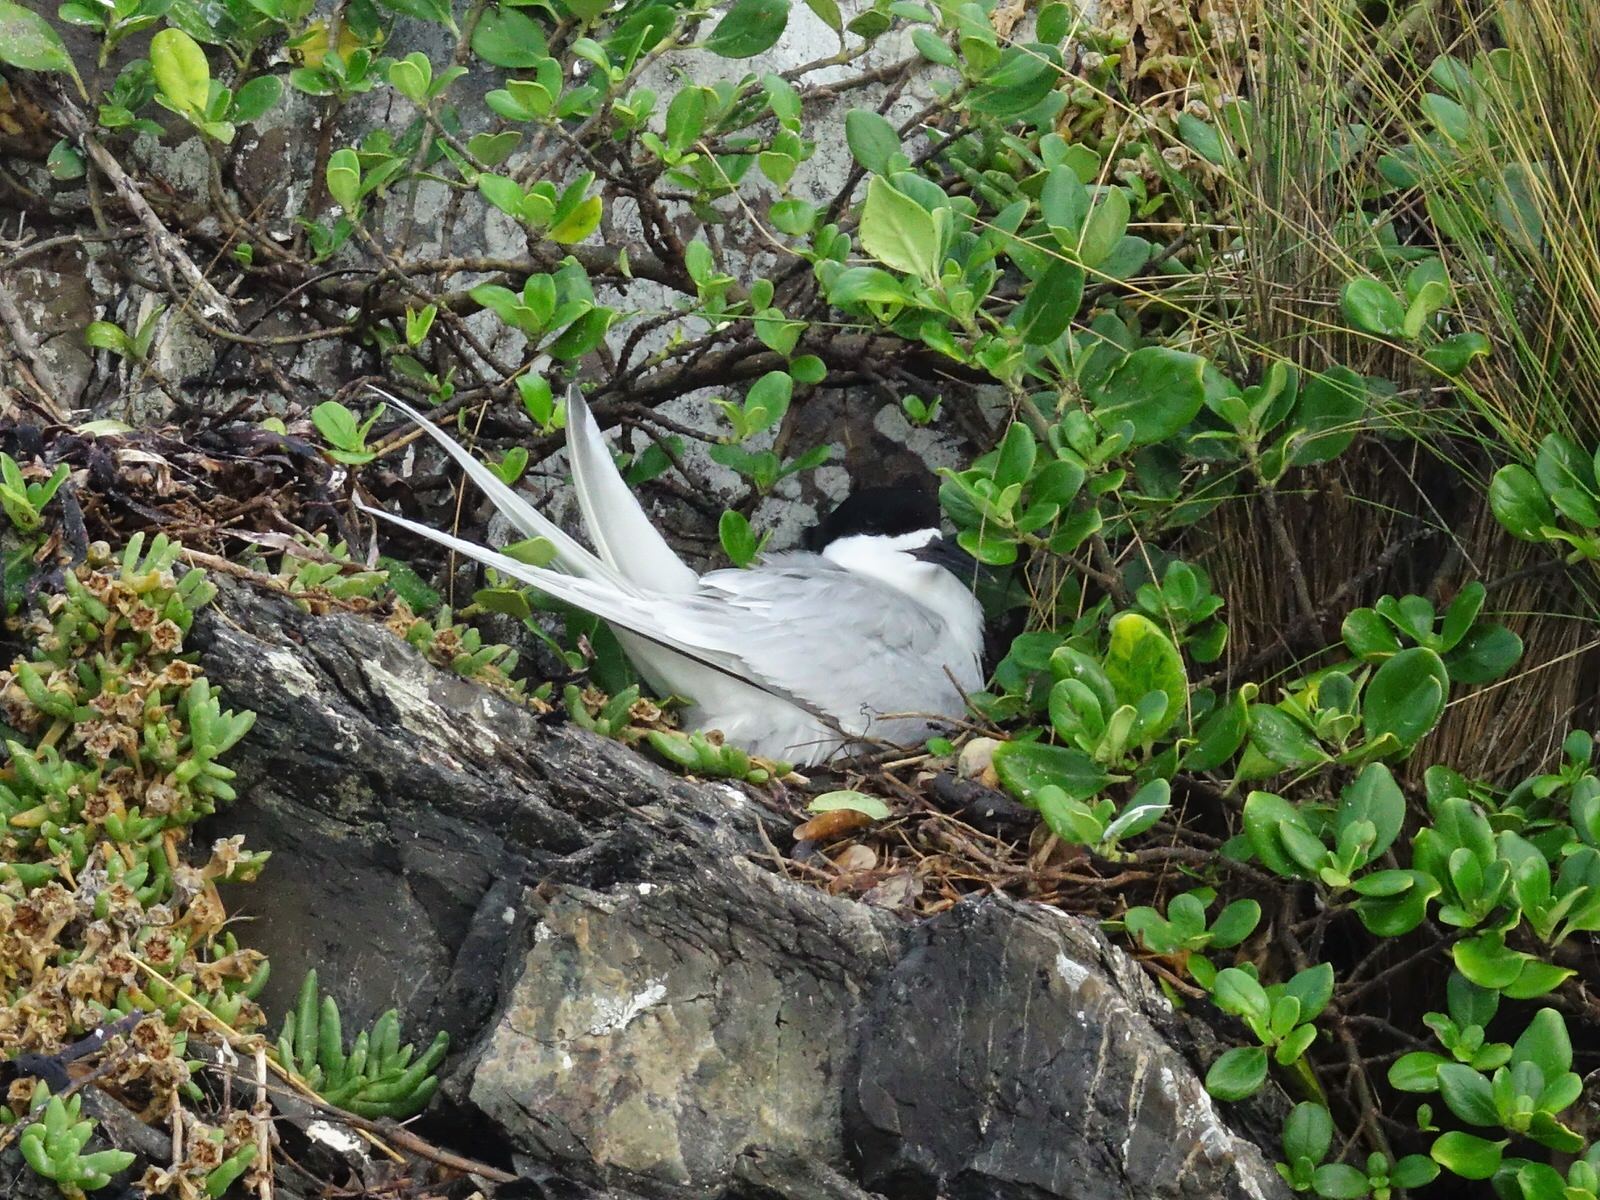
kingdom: Animalia
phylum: Chordata
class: Aves
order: Charadriiformes
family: Laridae
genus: Sterna
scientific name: Sterna striata
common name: White-fronted tern
